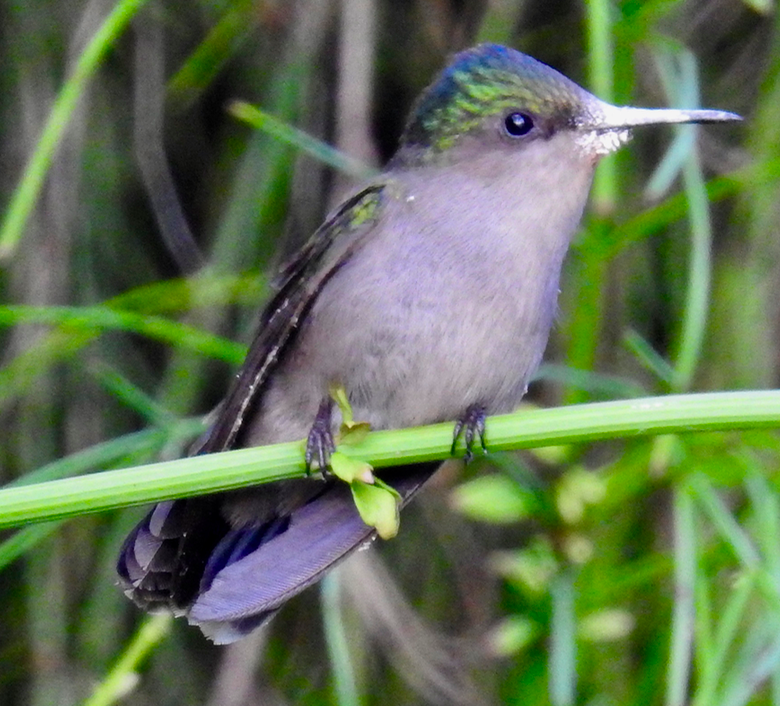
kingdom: Animalia
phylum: Chordata
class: Aves
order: Apodiformes
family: Trochilidae
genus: Orthorhyncus
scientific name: Orthorhyncus cristatus
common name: Antillean crested hummingbird
